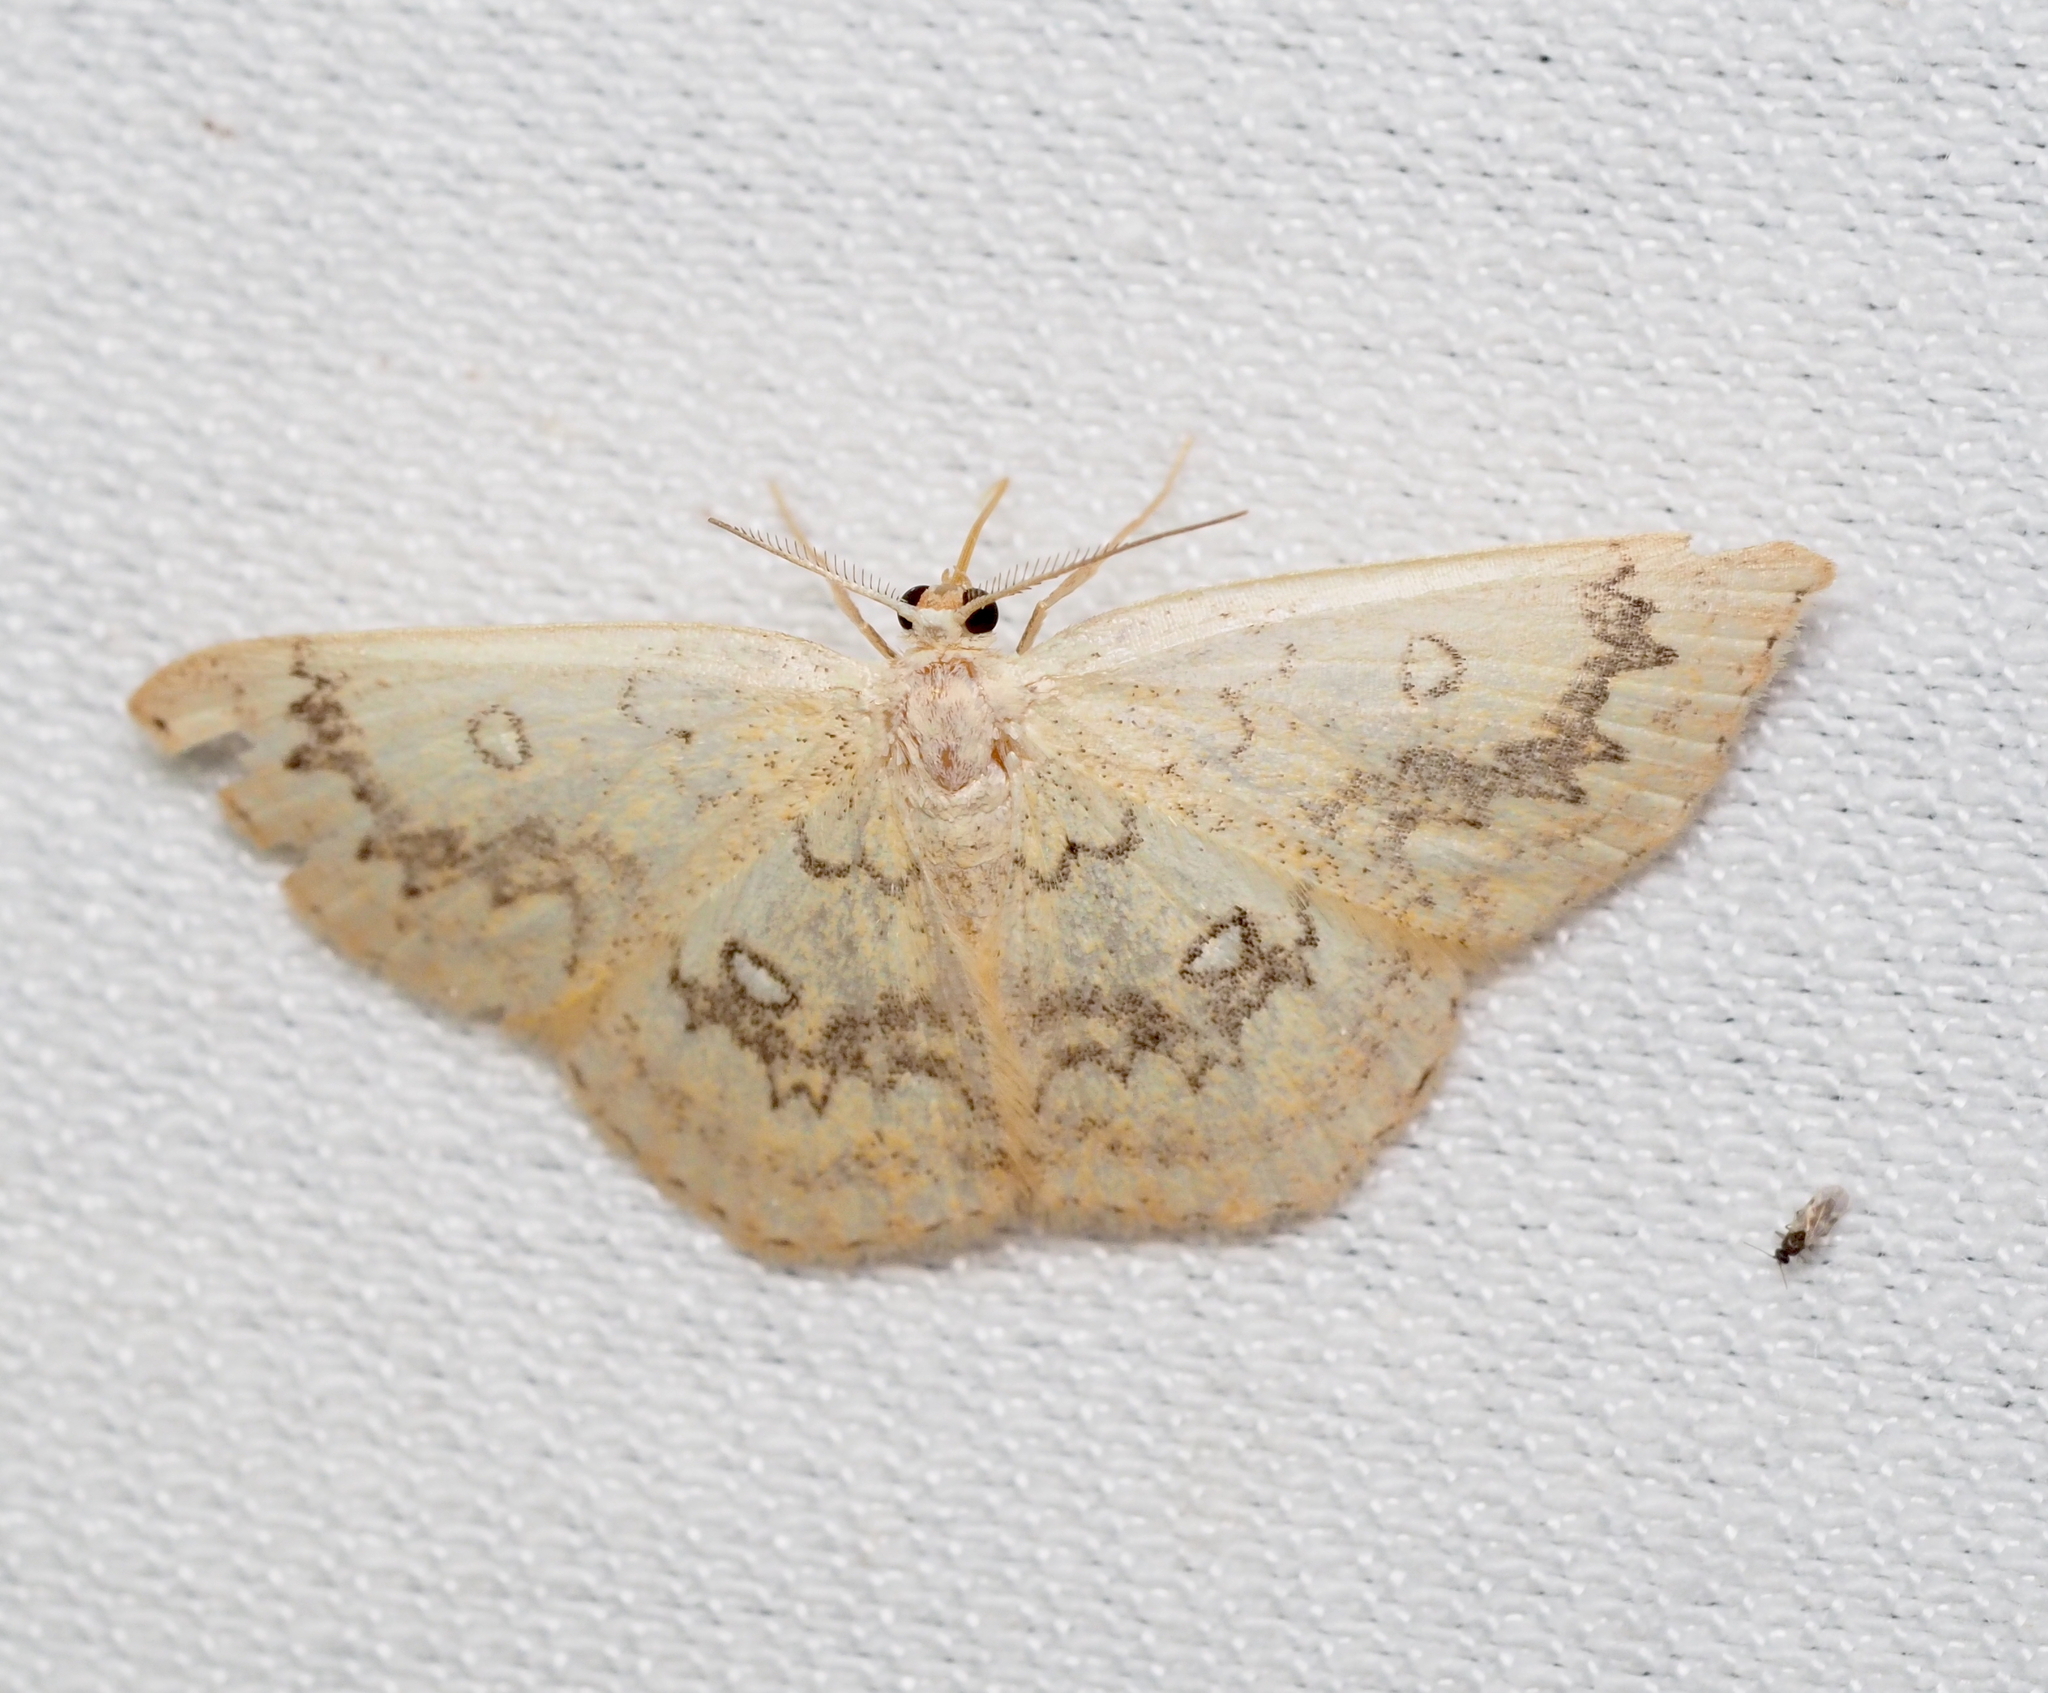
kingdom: Animalia
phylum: Arthropoda
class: Insecta
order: Lepidoptera
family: Geometridae
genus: Cyclophora
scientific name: Cyclophora annularia
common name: Mocha
